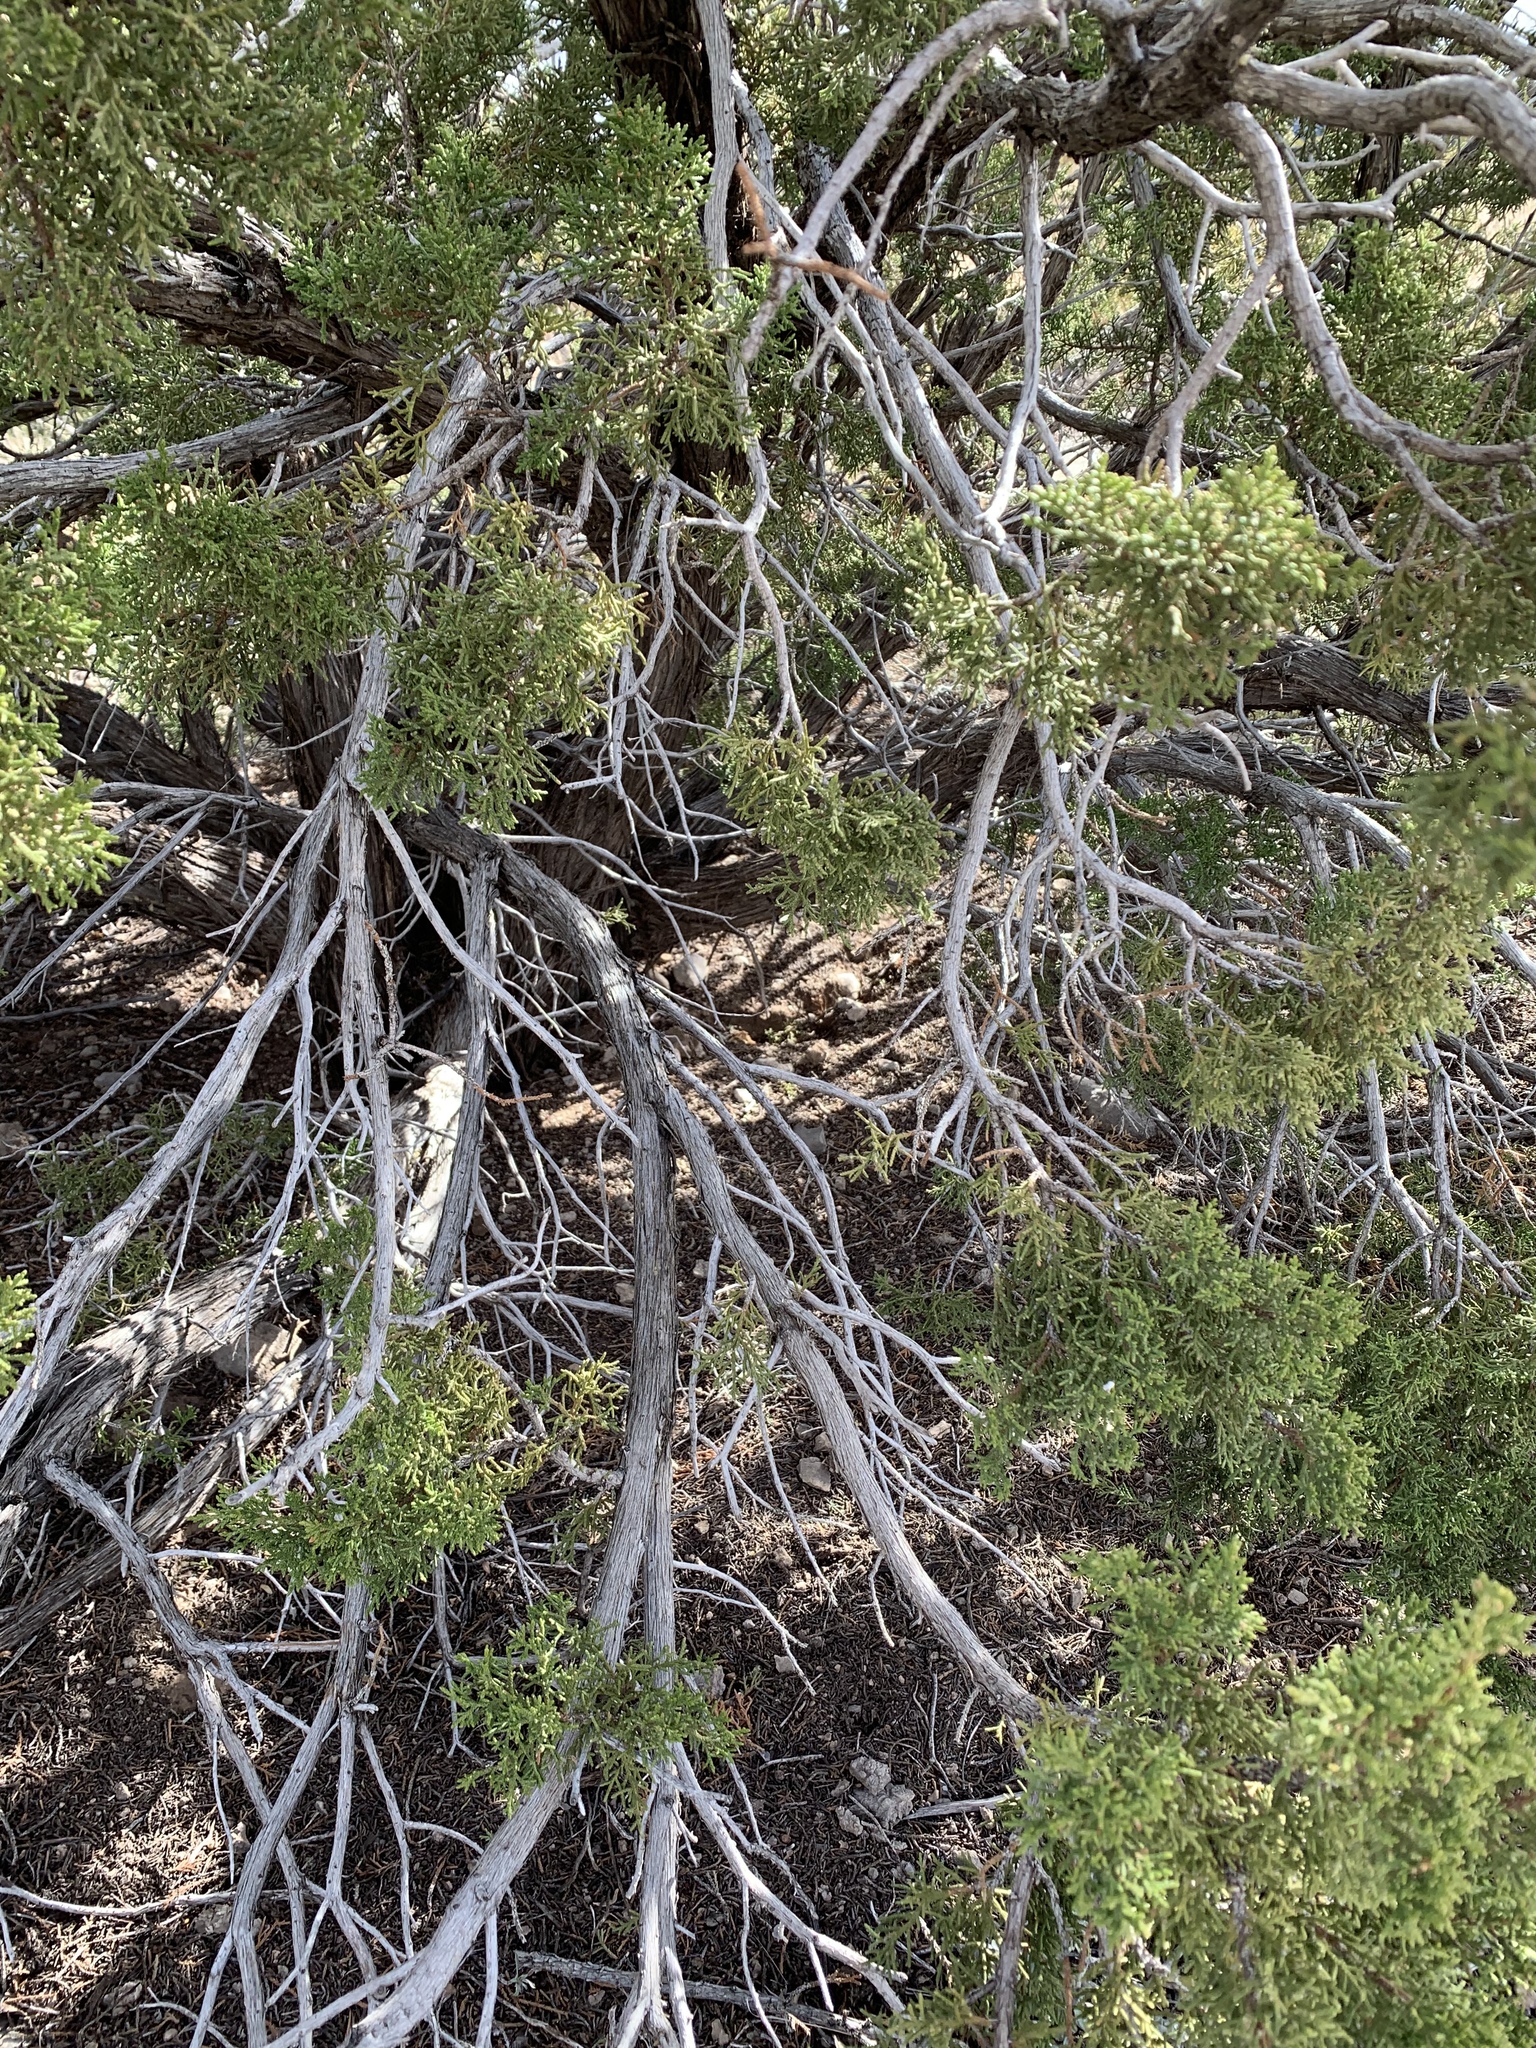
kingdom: Plantae
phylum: Tracheophyta
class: Pinopsida
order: Pinales
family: Cupressaceae
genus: Juniperus
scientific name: Juniperus monosperma
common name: One-seed juniper
